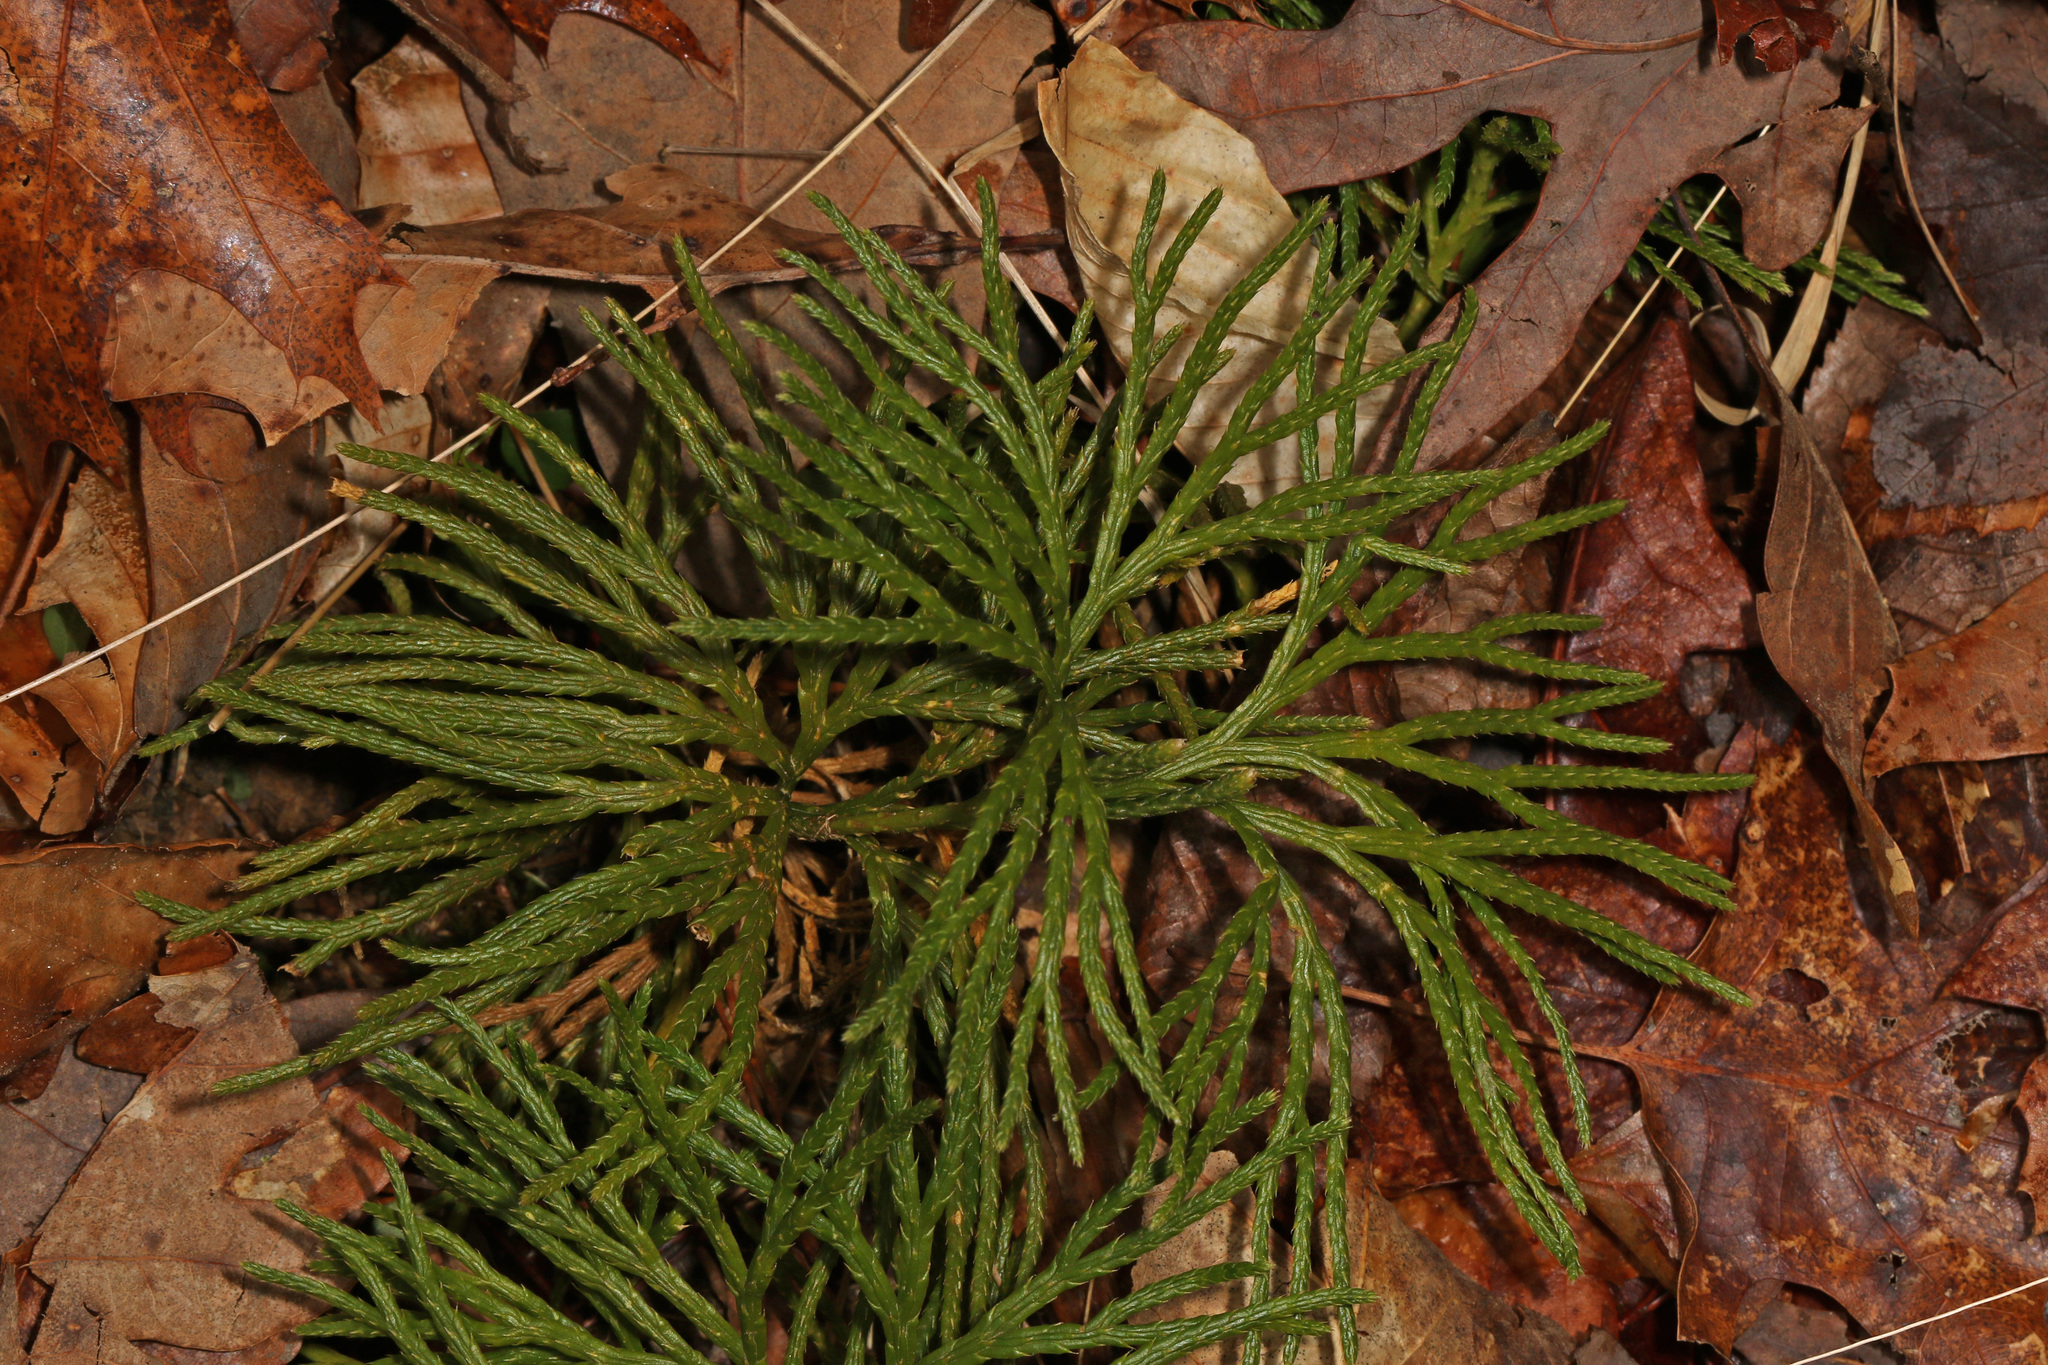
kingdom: Plantae
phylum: Tracheophyta
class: Lycopodiopsida
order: Lycopodiales
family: Lycopodiaceae
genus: Diphasiastrum
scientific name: Diphasiastrum digitatum
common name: Southern running-pine
